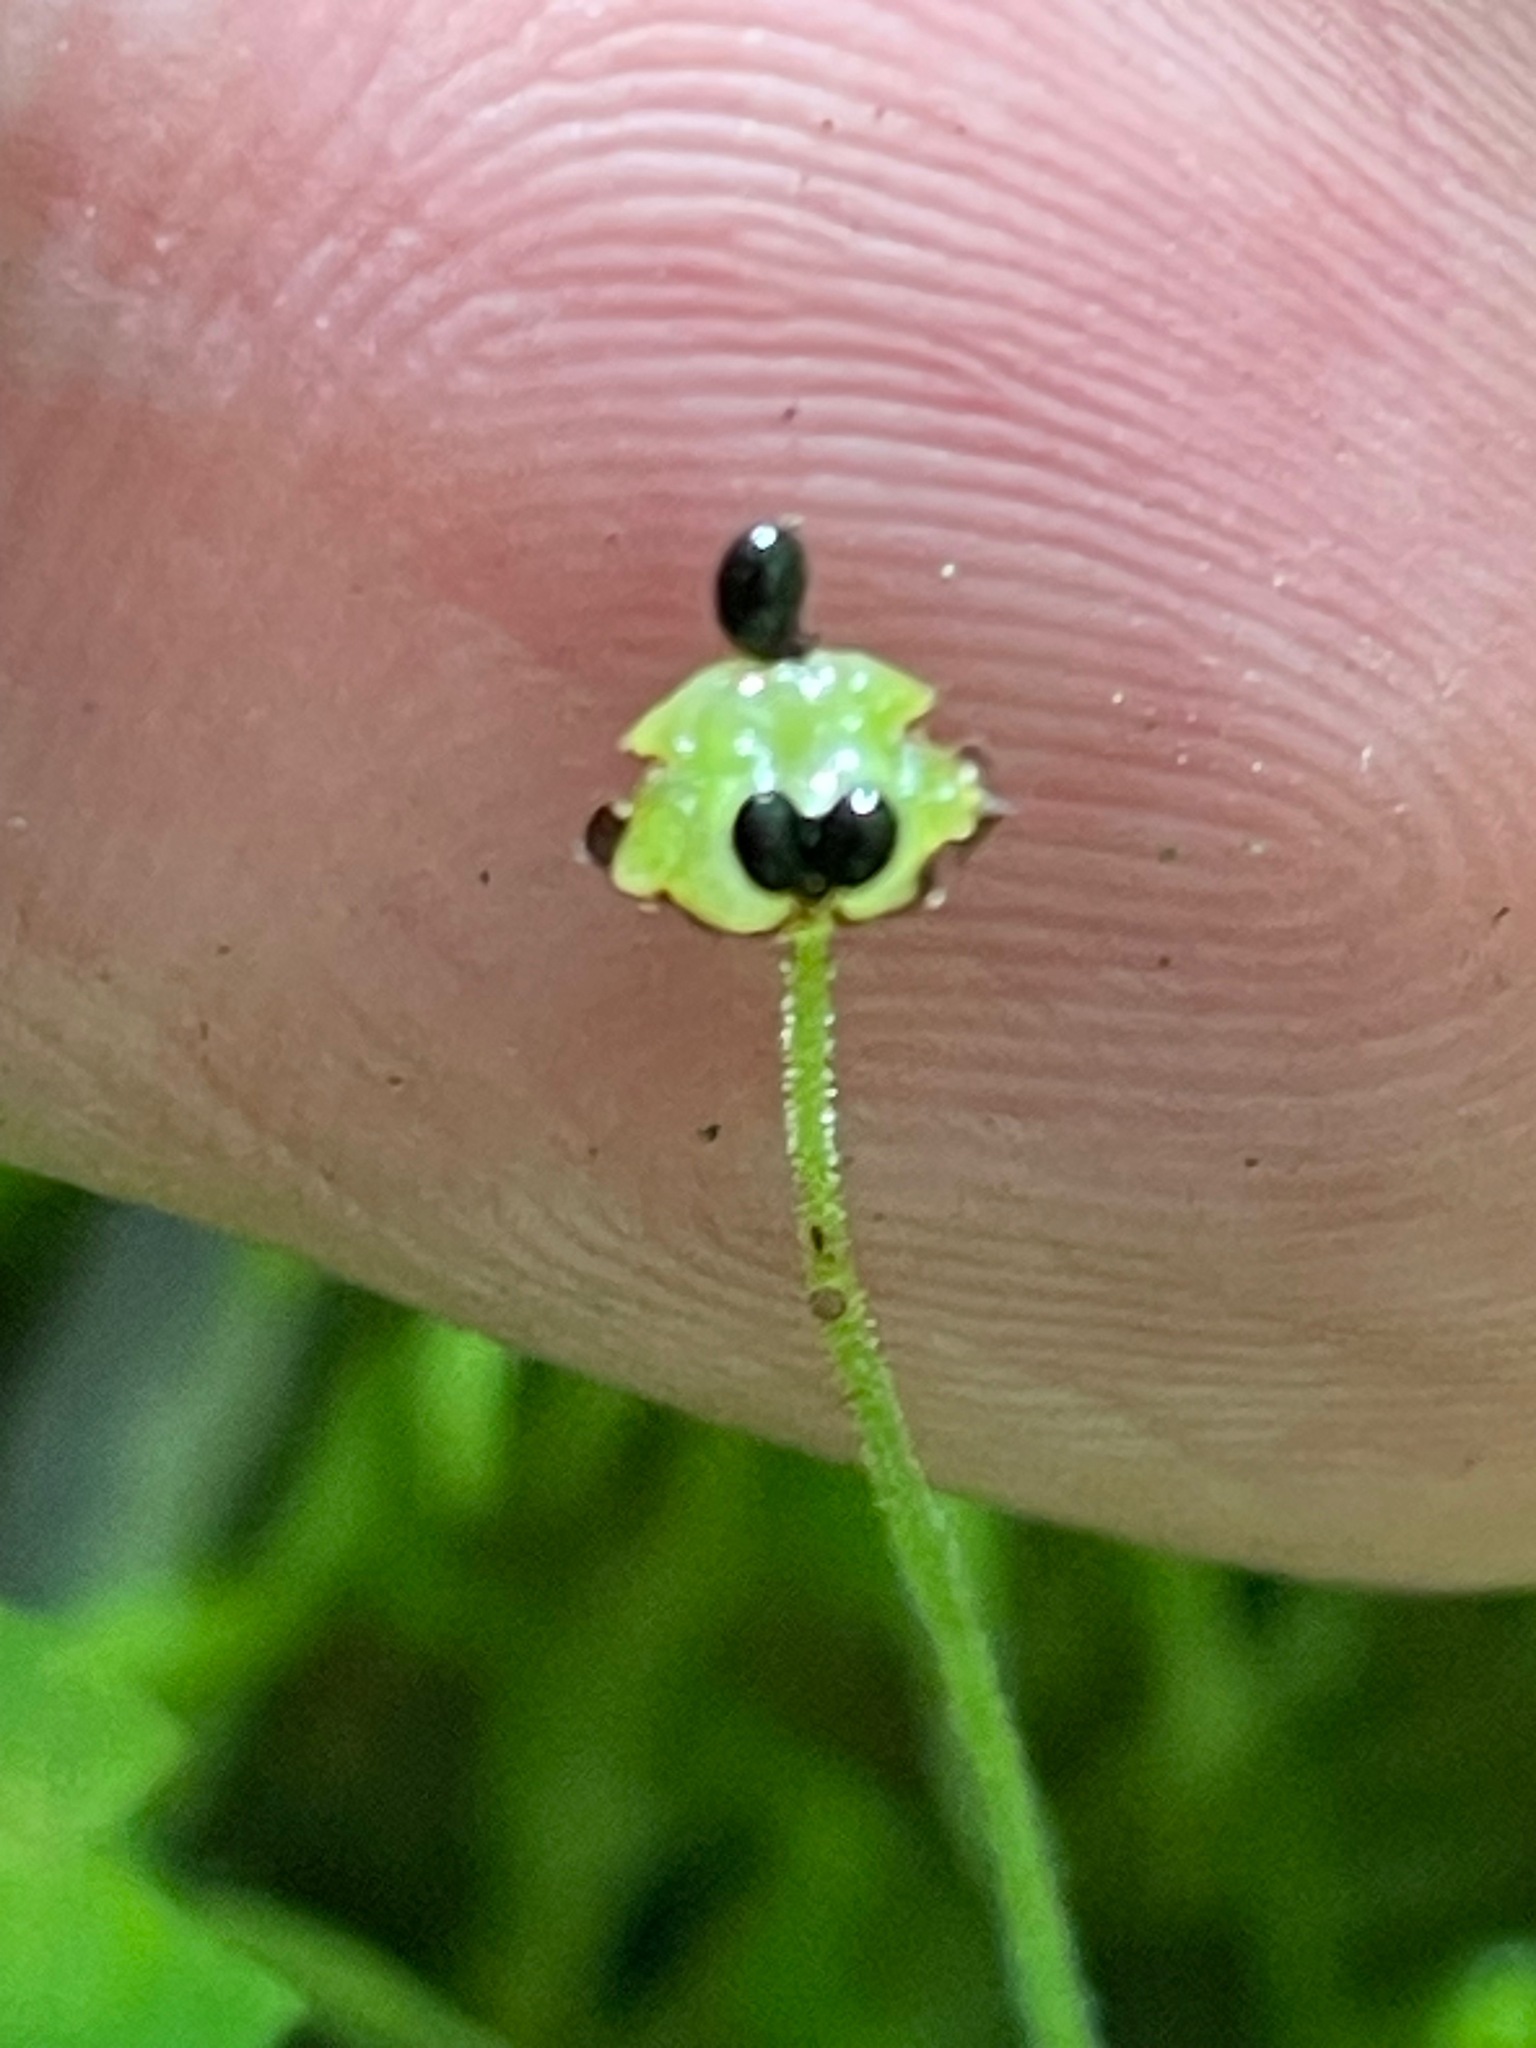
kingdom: Plantae
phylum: Tracheophyta
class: Magnoliopsida
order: Saxifragales
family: Saxifragaceae
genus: Mitella
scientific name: Mitella nuda
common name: Bare-stemmed bishop's-cap
